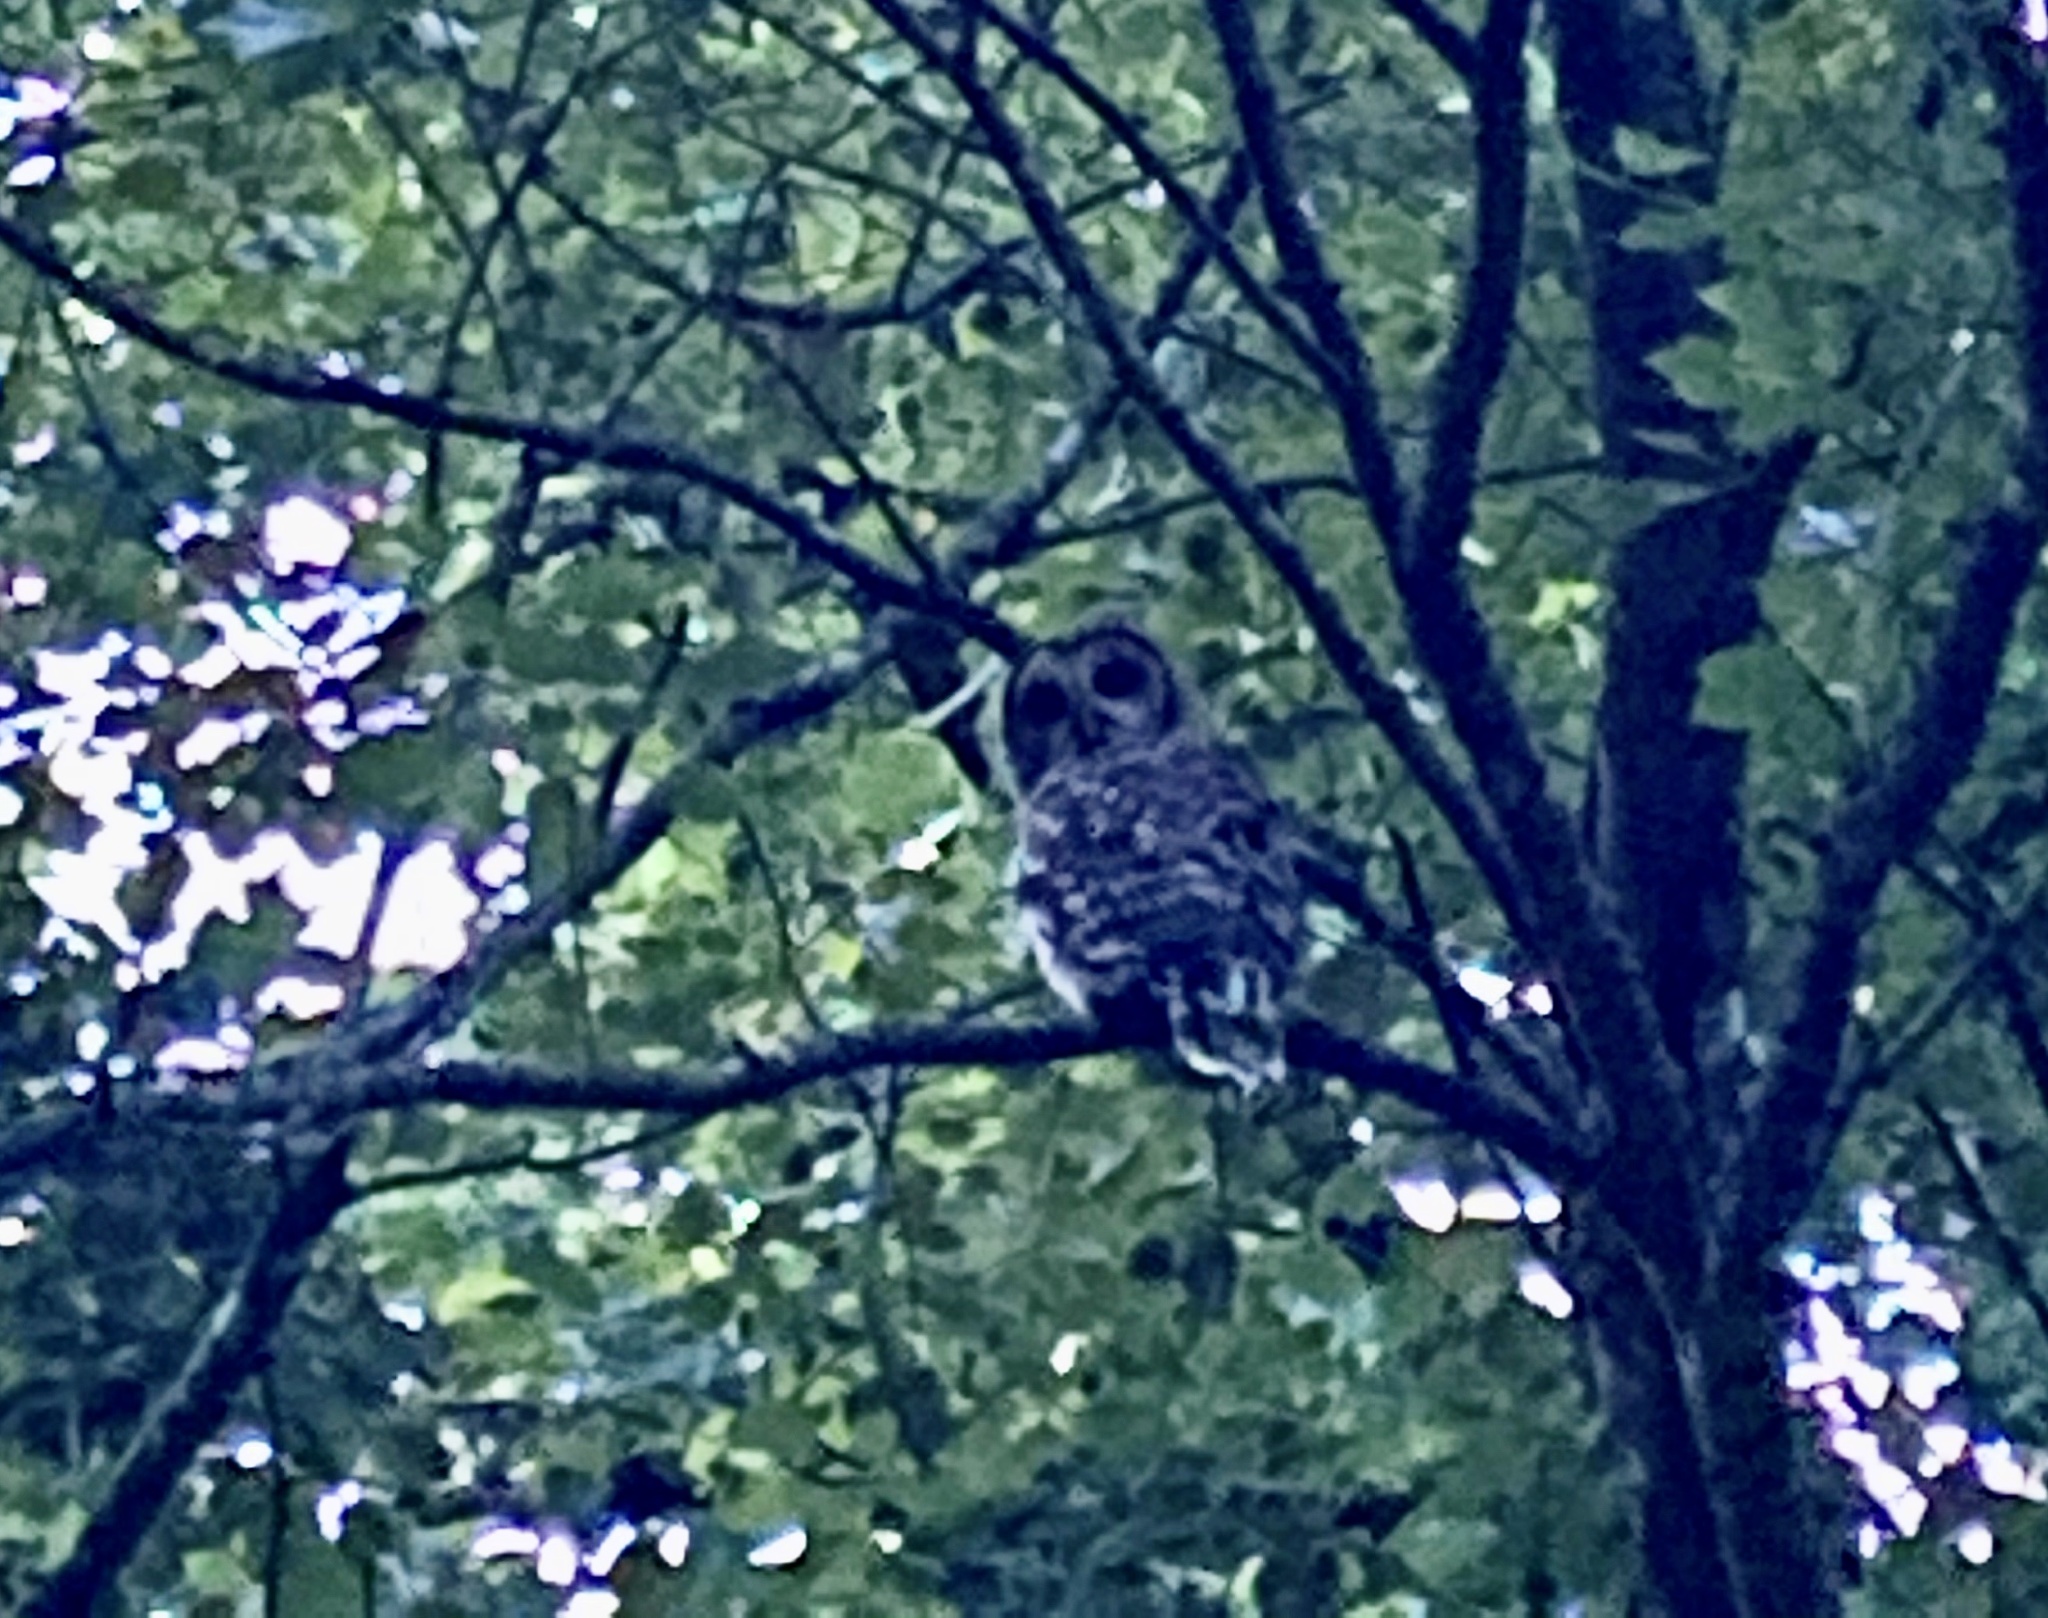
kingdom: Animalia
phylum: Chordata
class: Aves
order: Strigiformes
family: Strigidae
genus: Strix
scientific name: Strix varia
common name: Barred owl
